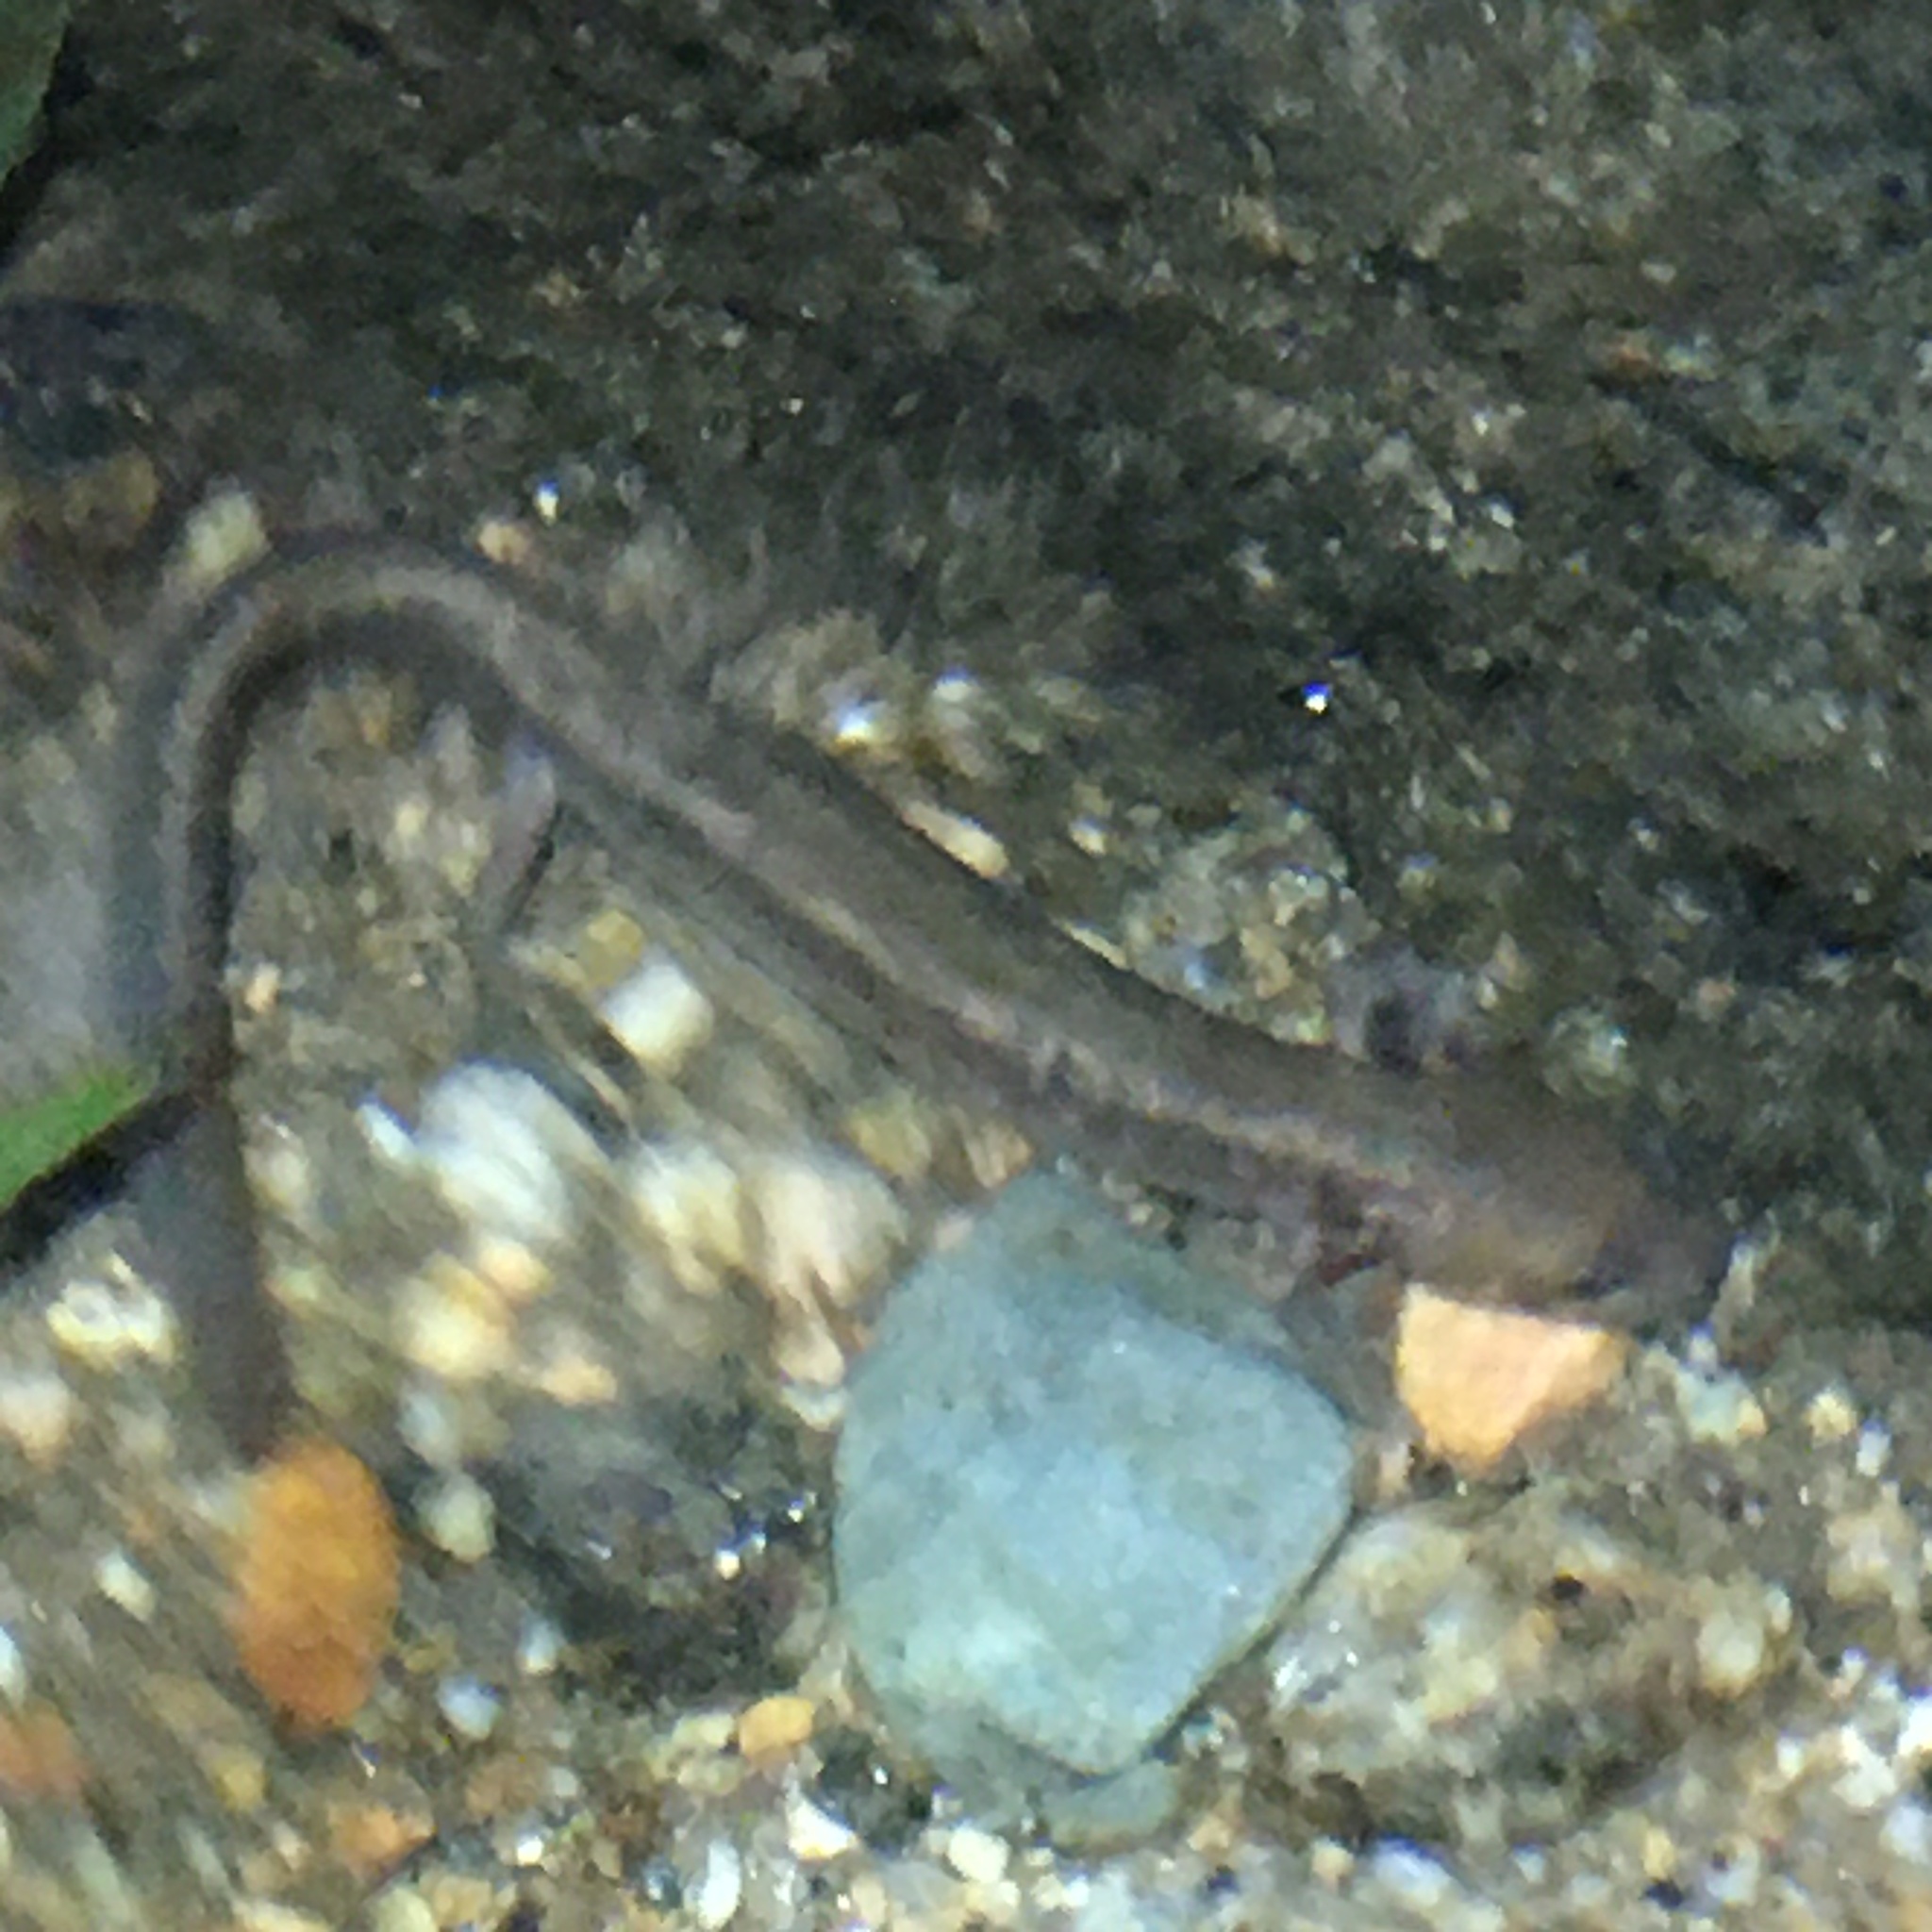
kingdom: Animalia
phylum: Chordata
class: Amphibia
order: Caudata
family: Plethodontidae
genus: Eurycea
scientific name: Eurycea bislineata
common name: Northern two-lined salamander
